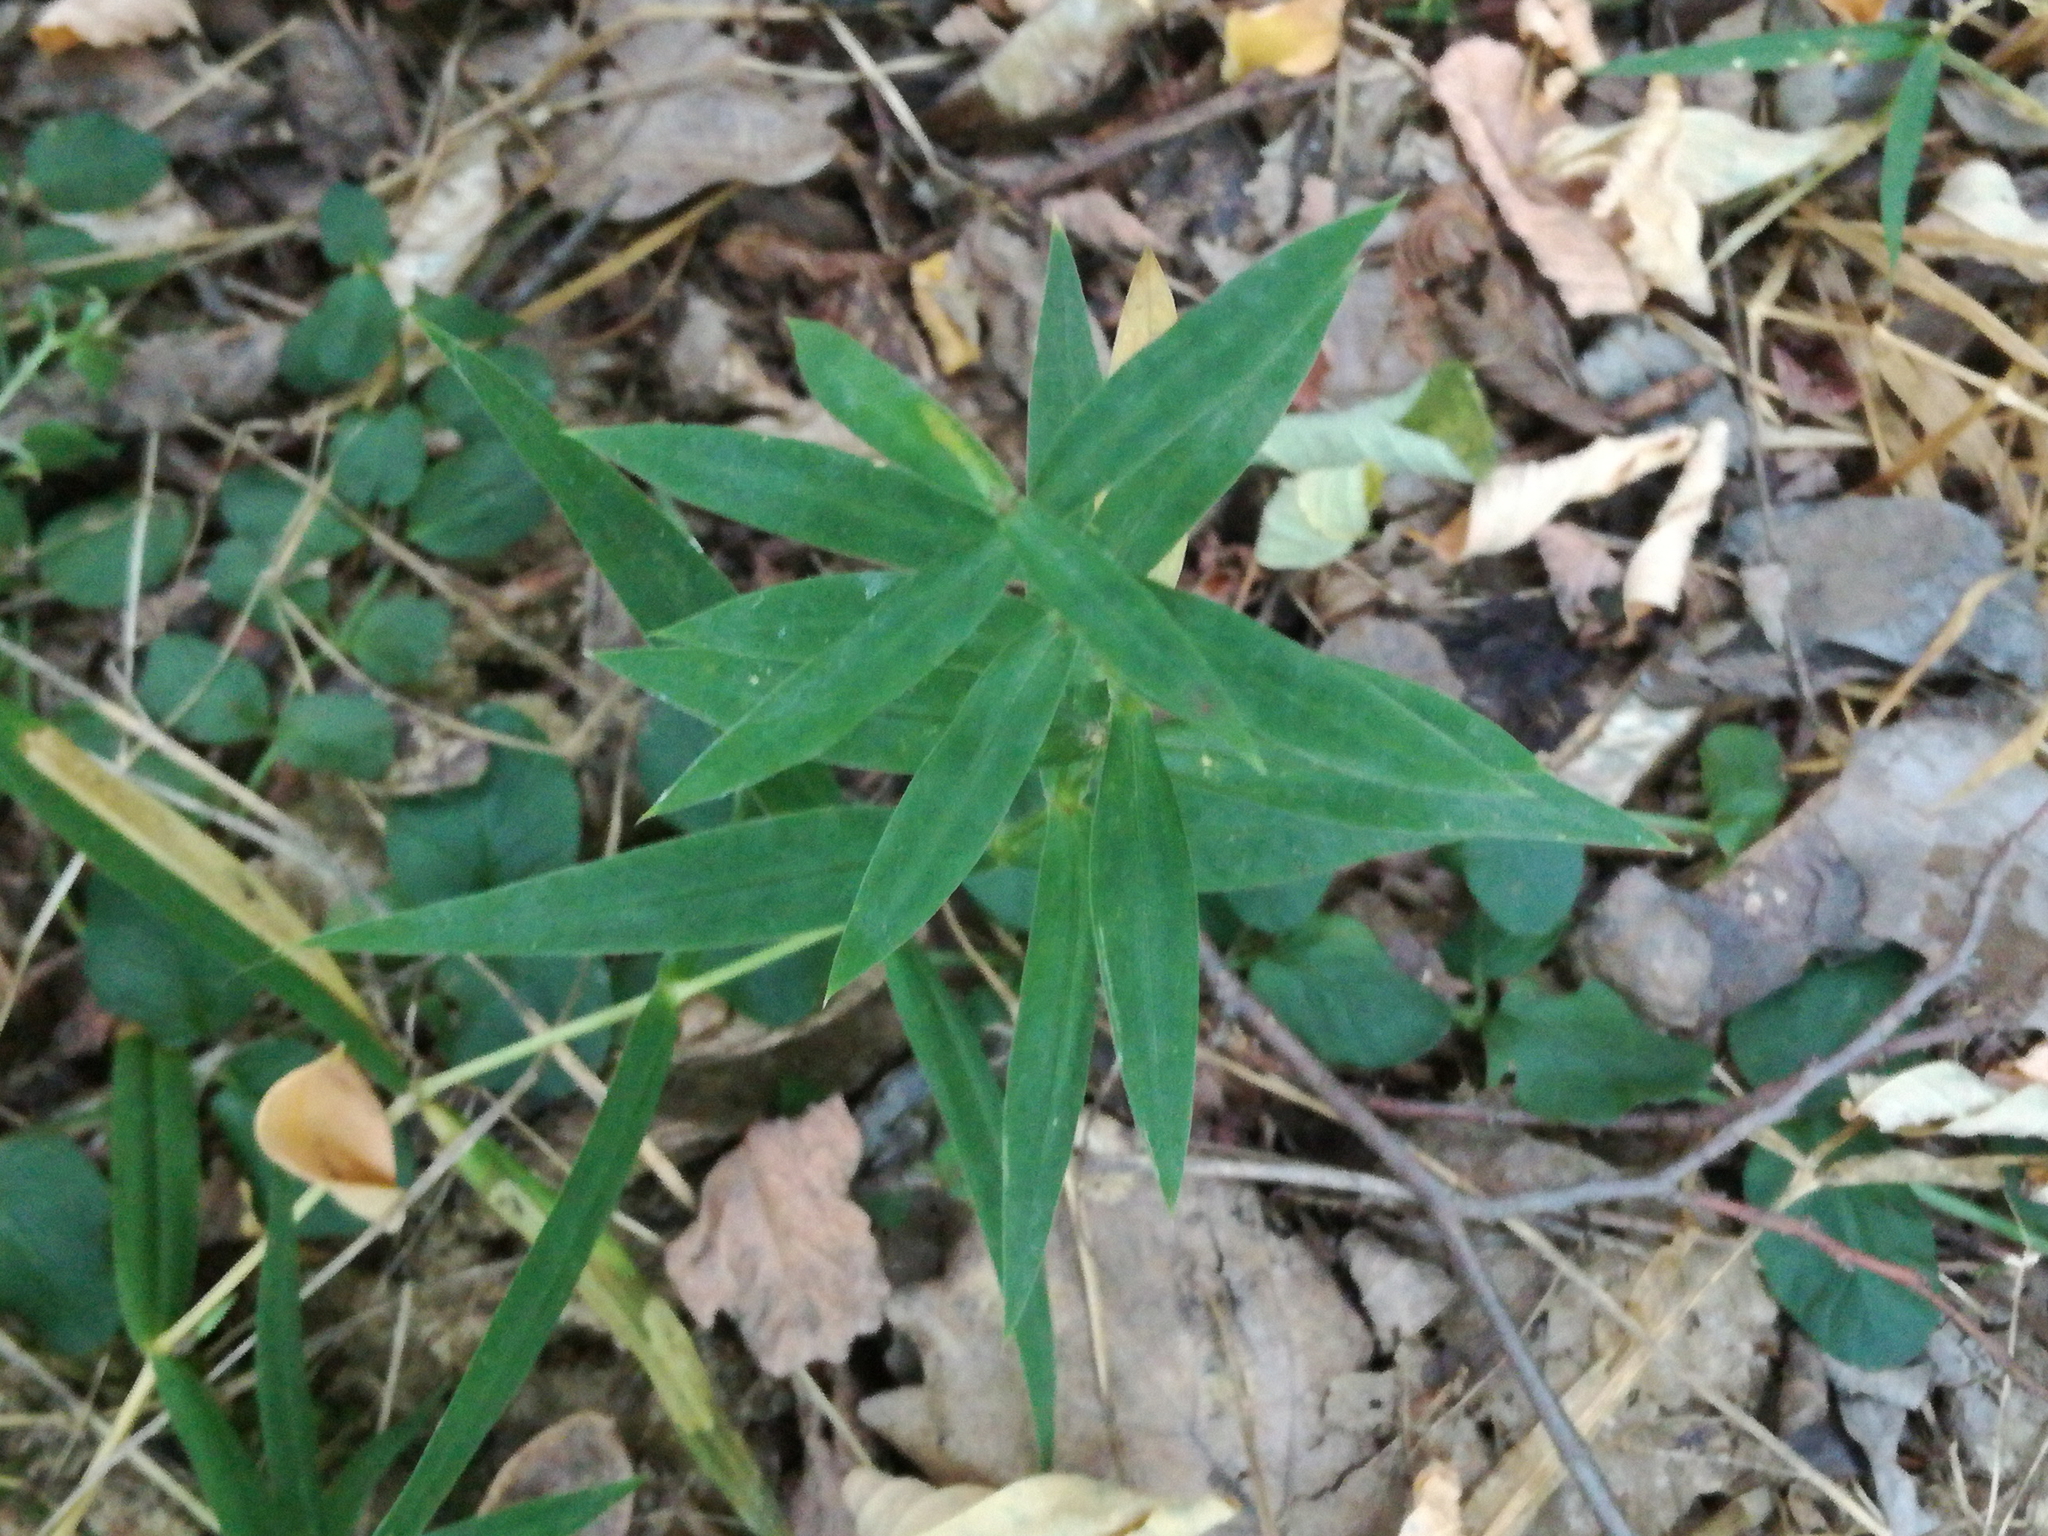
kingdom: Plantae
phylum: Tracheophyta
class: Liliopsida
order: Asparagales
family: Asparagaceae
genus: Polygonatum
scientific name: Polygonatum verticillatum
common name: Whorled solomon's-seal
